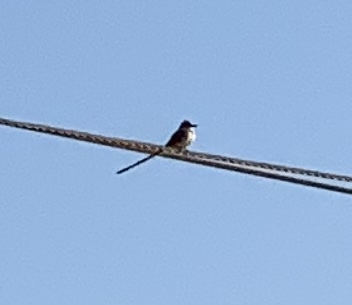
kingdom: Animalia
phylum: Chordata
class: Aves
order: Passeriformes
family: Tyrannidae
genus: Tyrannus
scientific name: Tyrannus forficatus
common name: Scissor-tailed flycatcher
